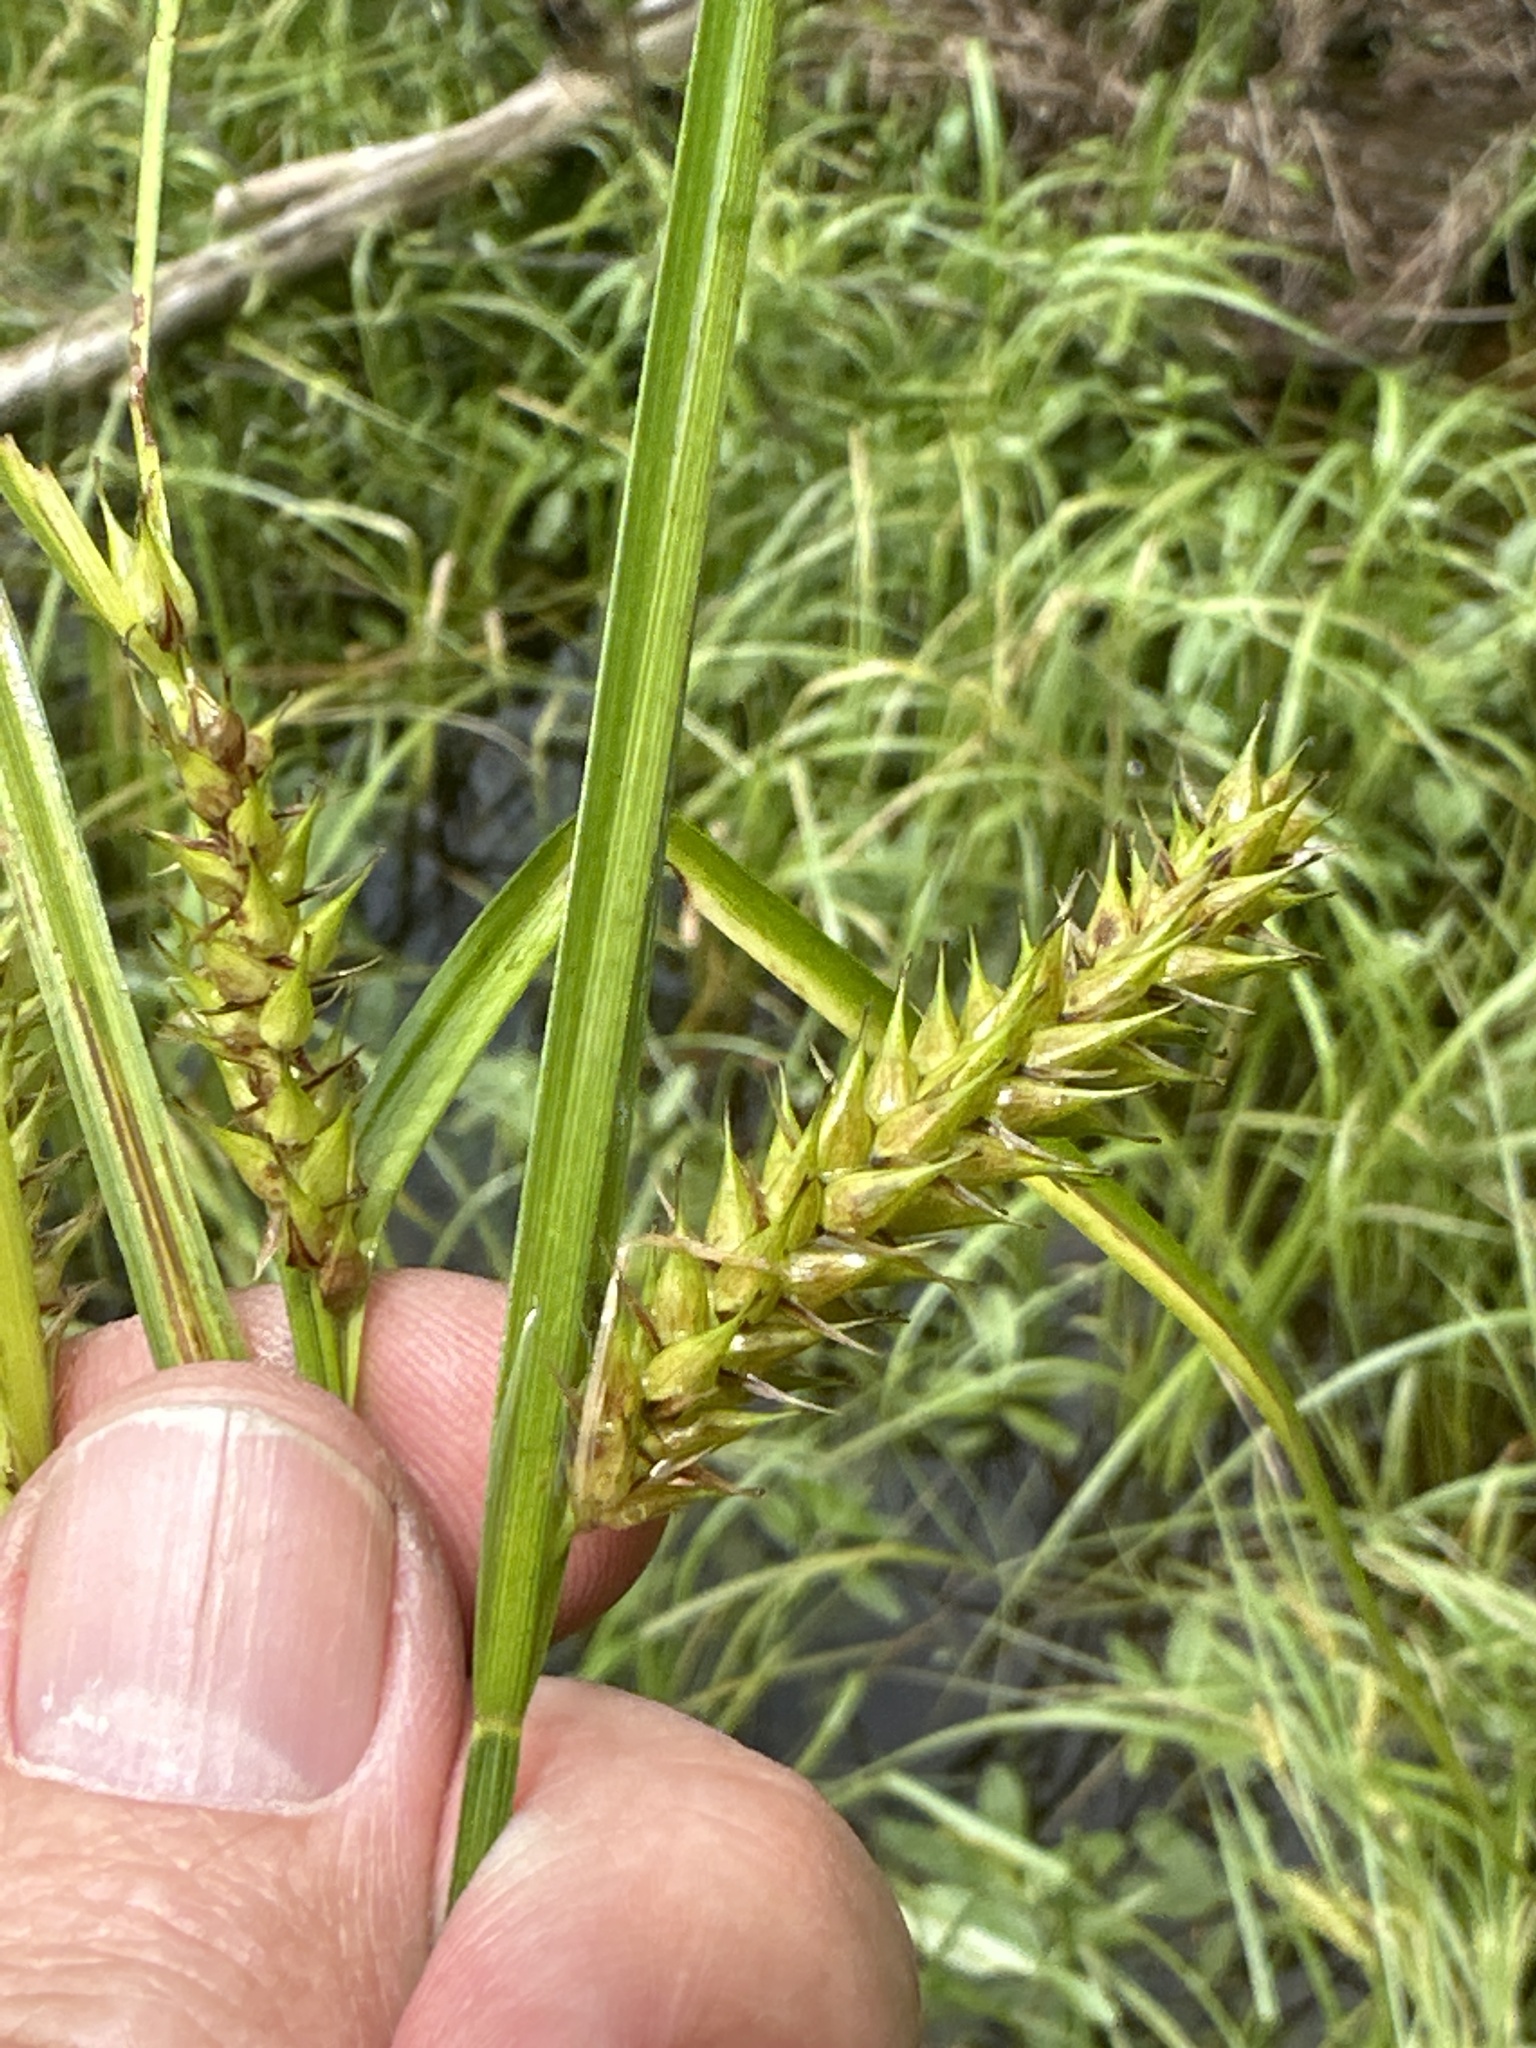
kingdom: Plantae
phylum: Tracheophyta
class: Liliopsida
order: Poales
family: Cyperaceae
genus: Carex
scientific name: Carex vesicaria
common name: Bladder-sedge
